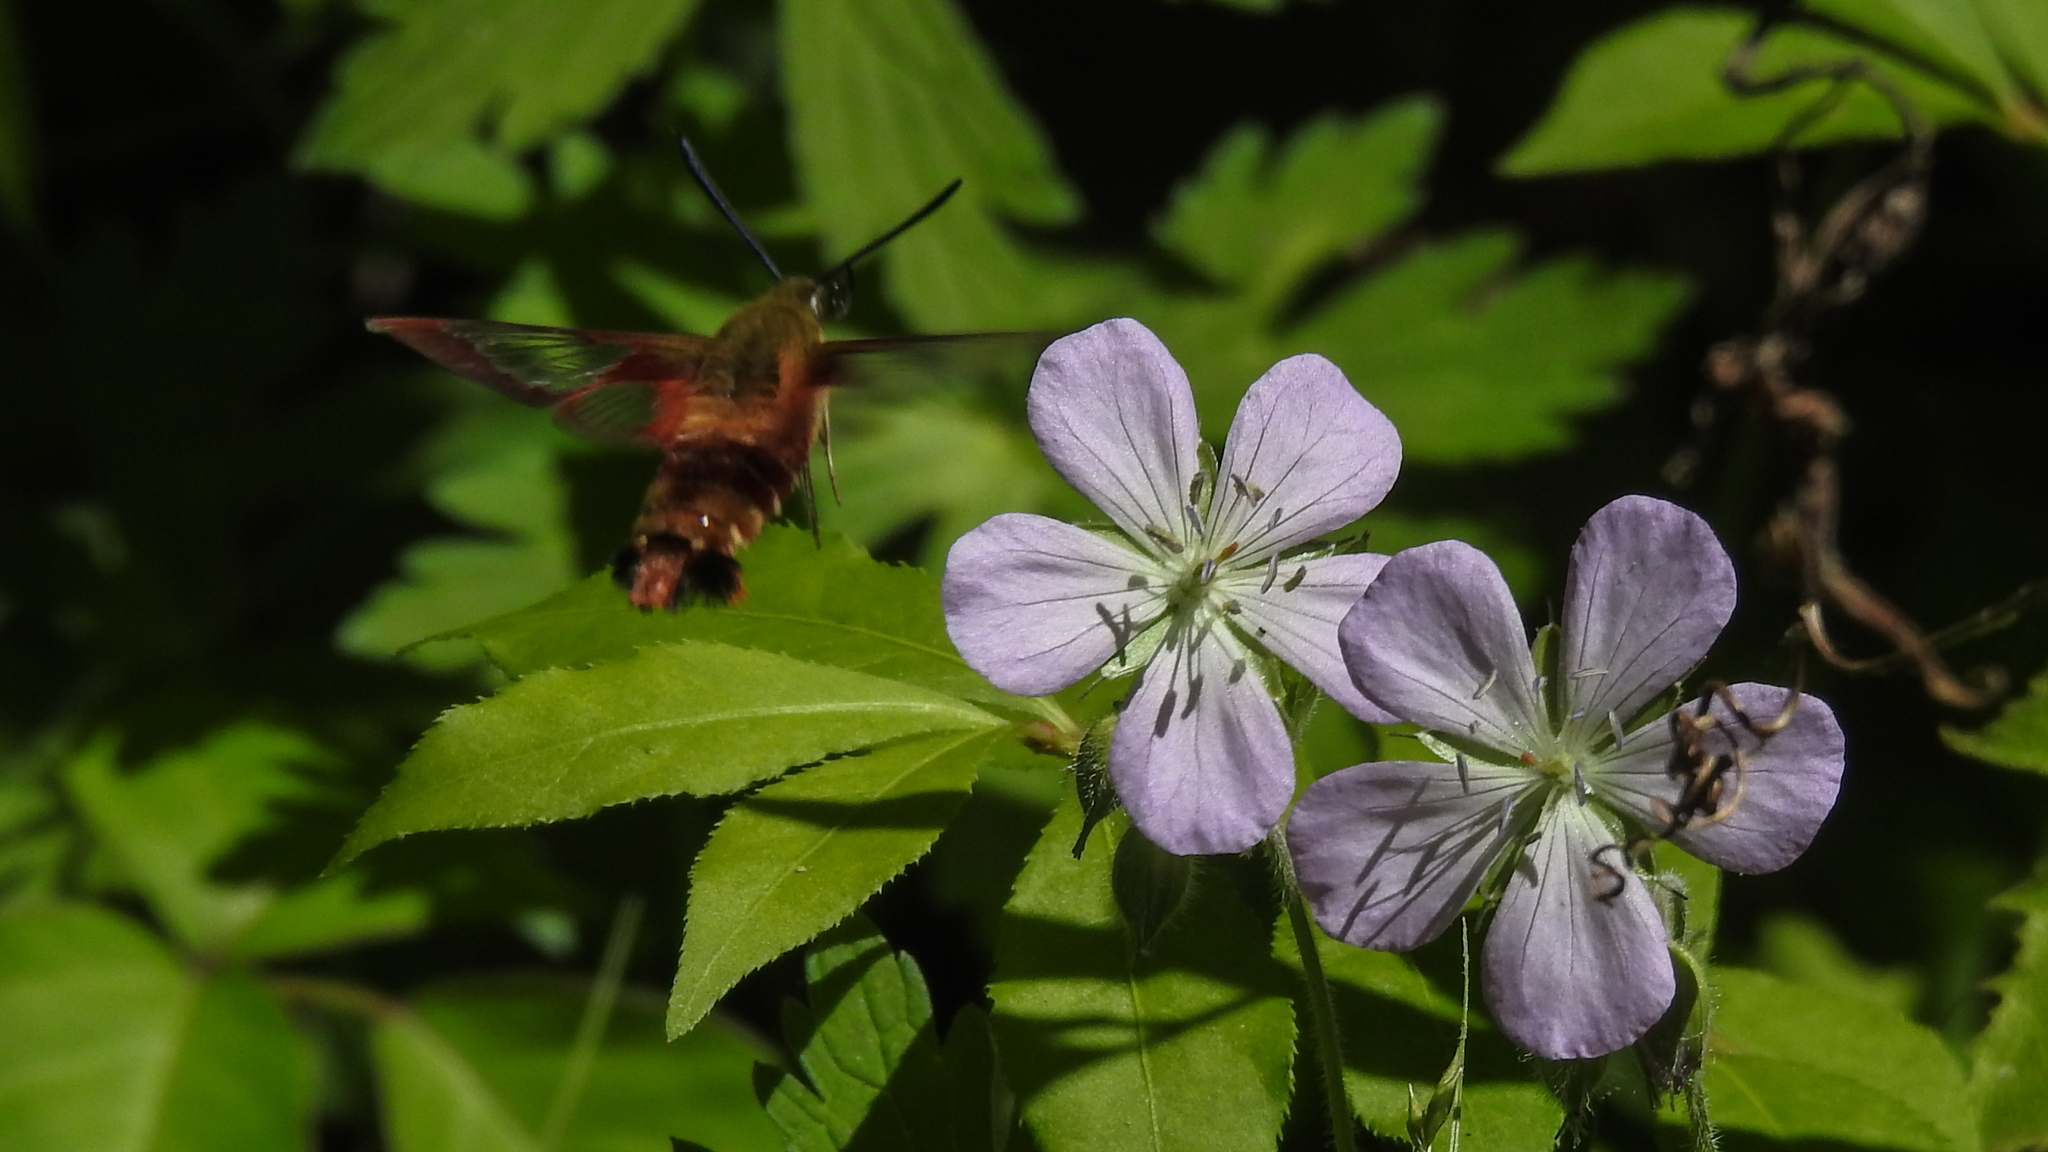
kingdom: Animalia
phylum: Arthropoda
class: Insecta
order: Lepidoptera
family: Sphingidae
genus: Hemaris
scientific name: Hemaris thysbe
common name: Common clear-wing
